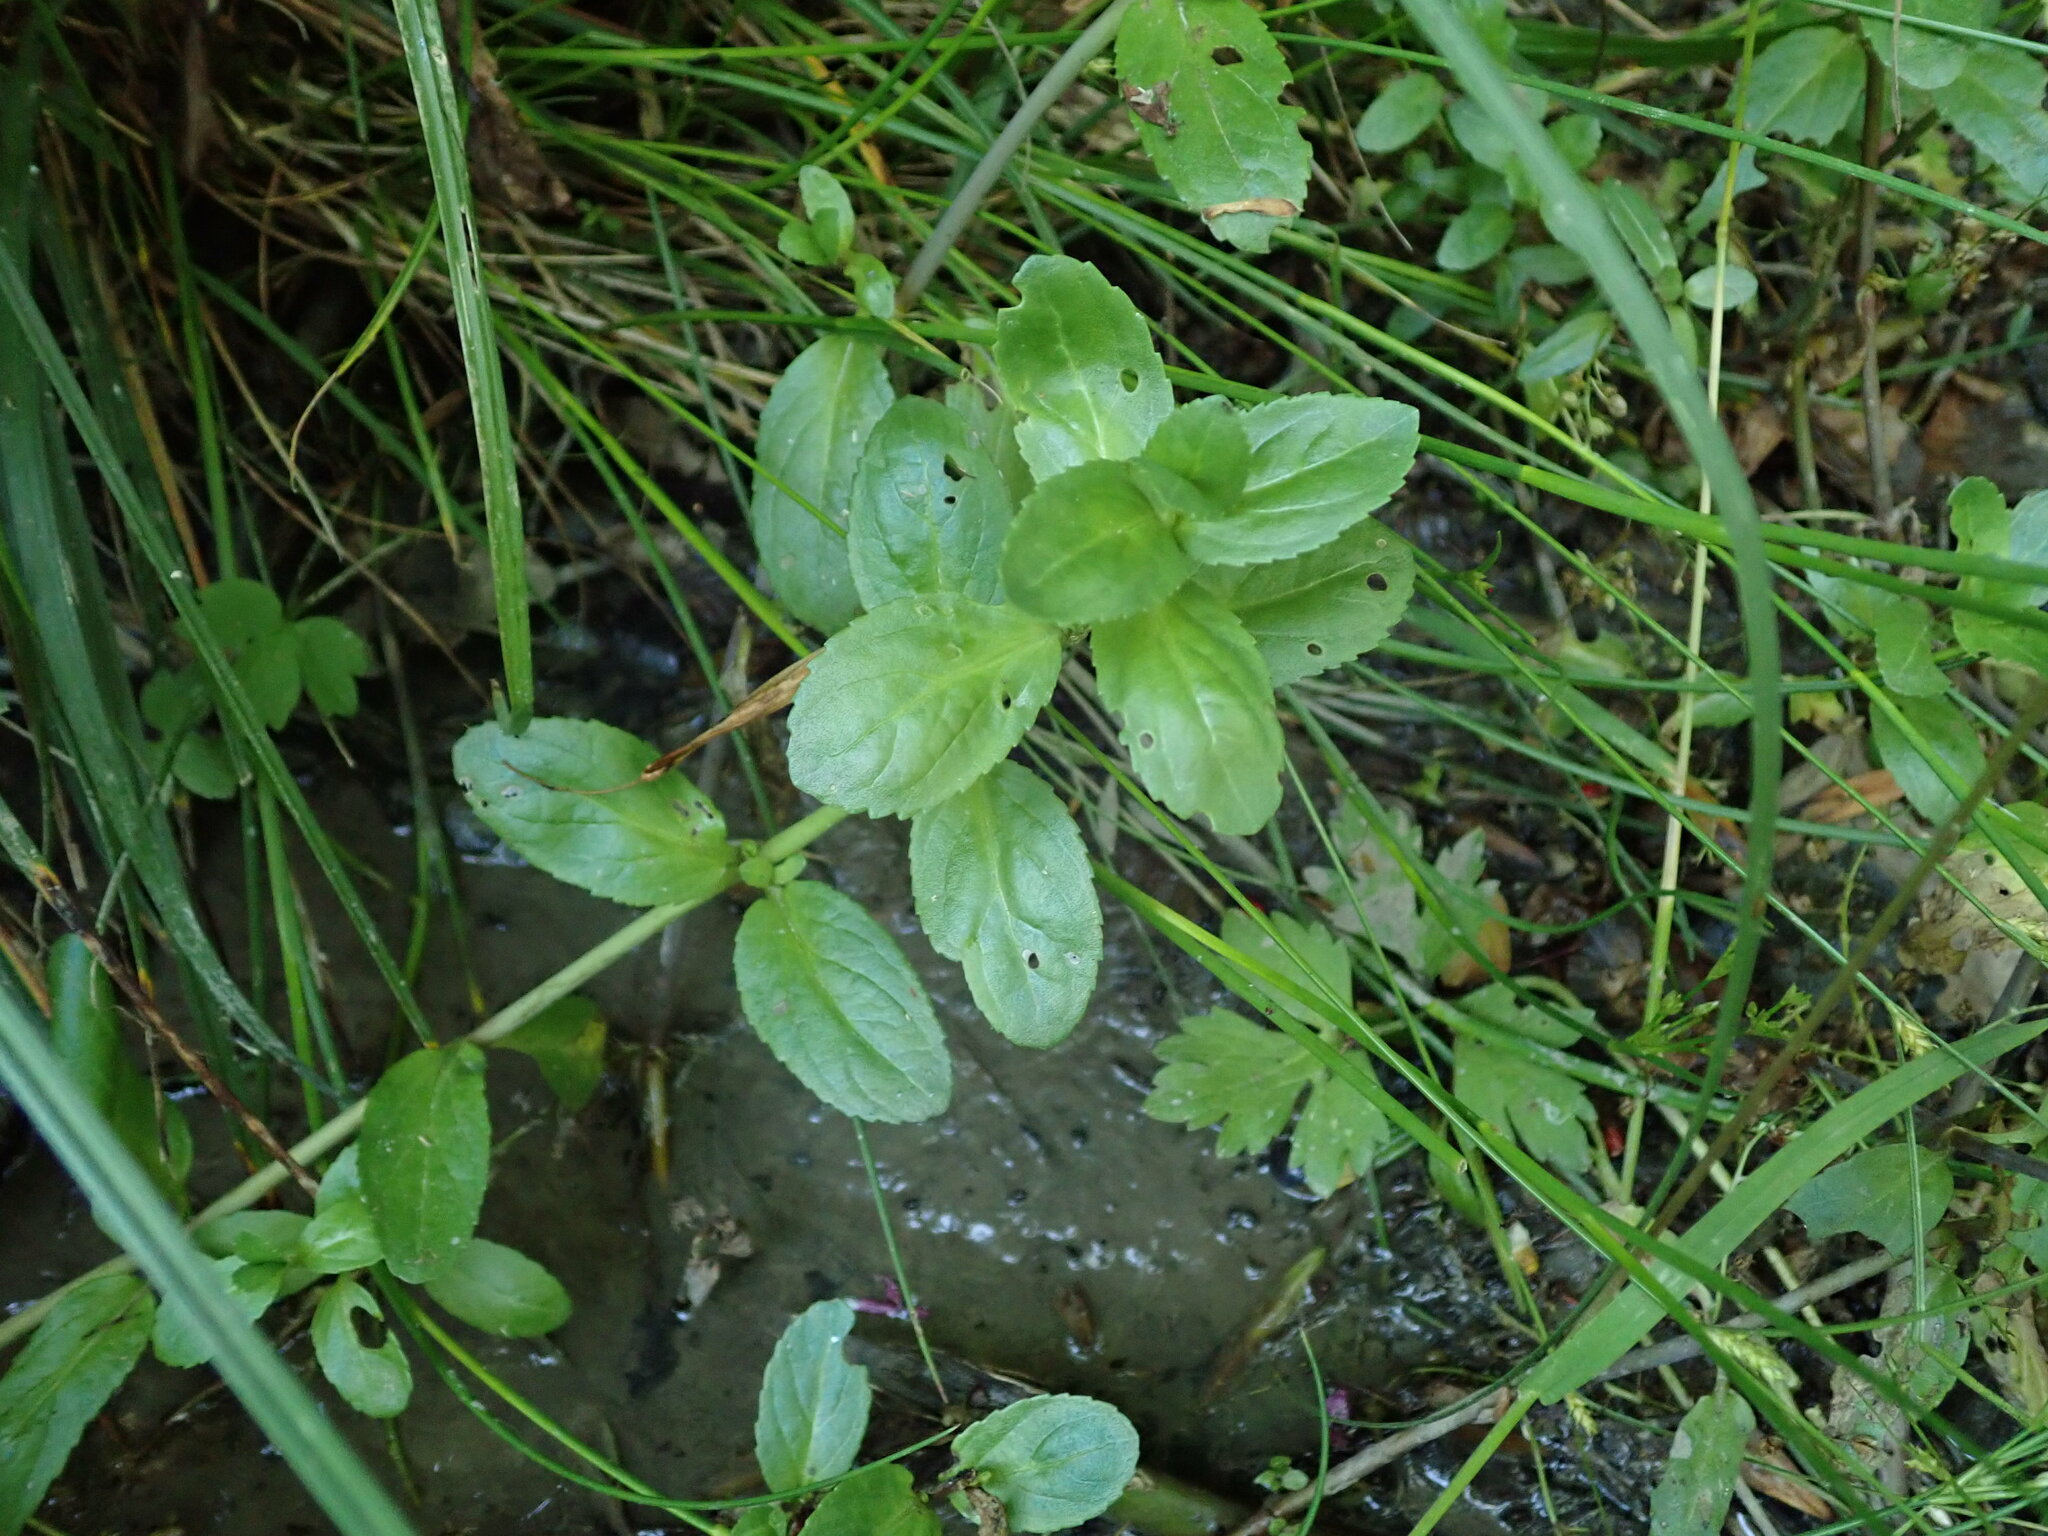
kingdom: Plantae
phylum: Tracheophyta
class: Magnoliopsida
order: Lamiales
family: Plantaginaceae
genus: Veronica
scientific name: Veronica beccabunga
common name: Brooklime
